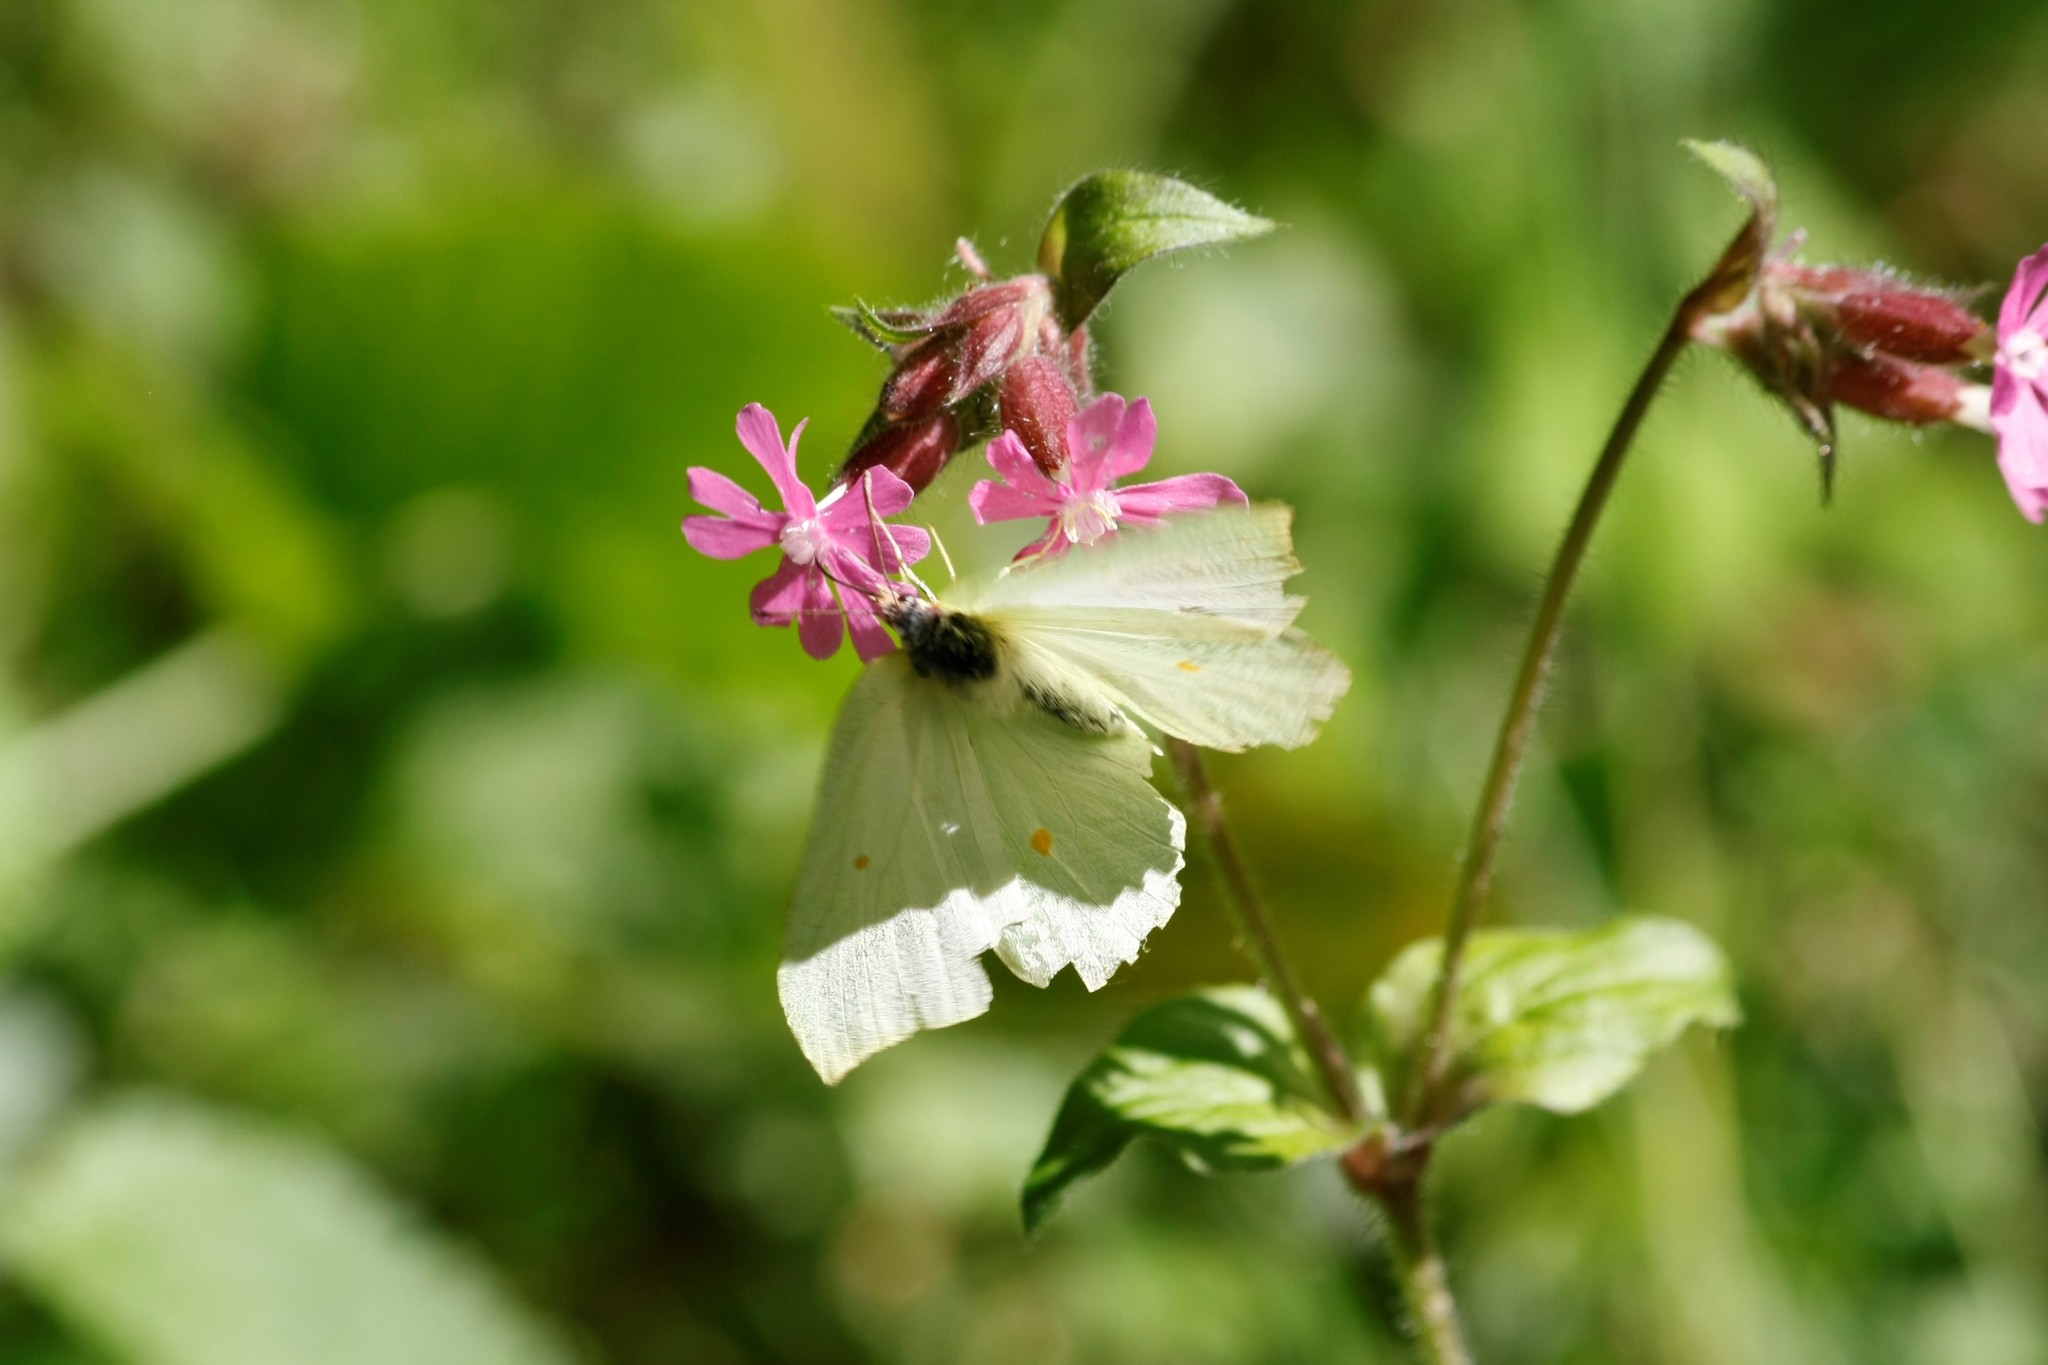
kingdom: Animalia
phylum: Arthropoda
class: Insecta
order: Lepidoptera
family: Pieridae
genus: Gonepteryx
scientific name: Gonepteryx rhamni
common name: Brimstone
